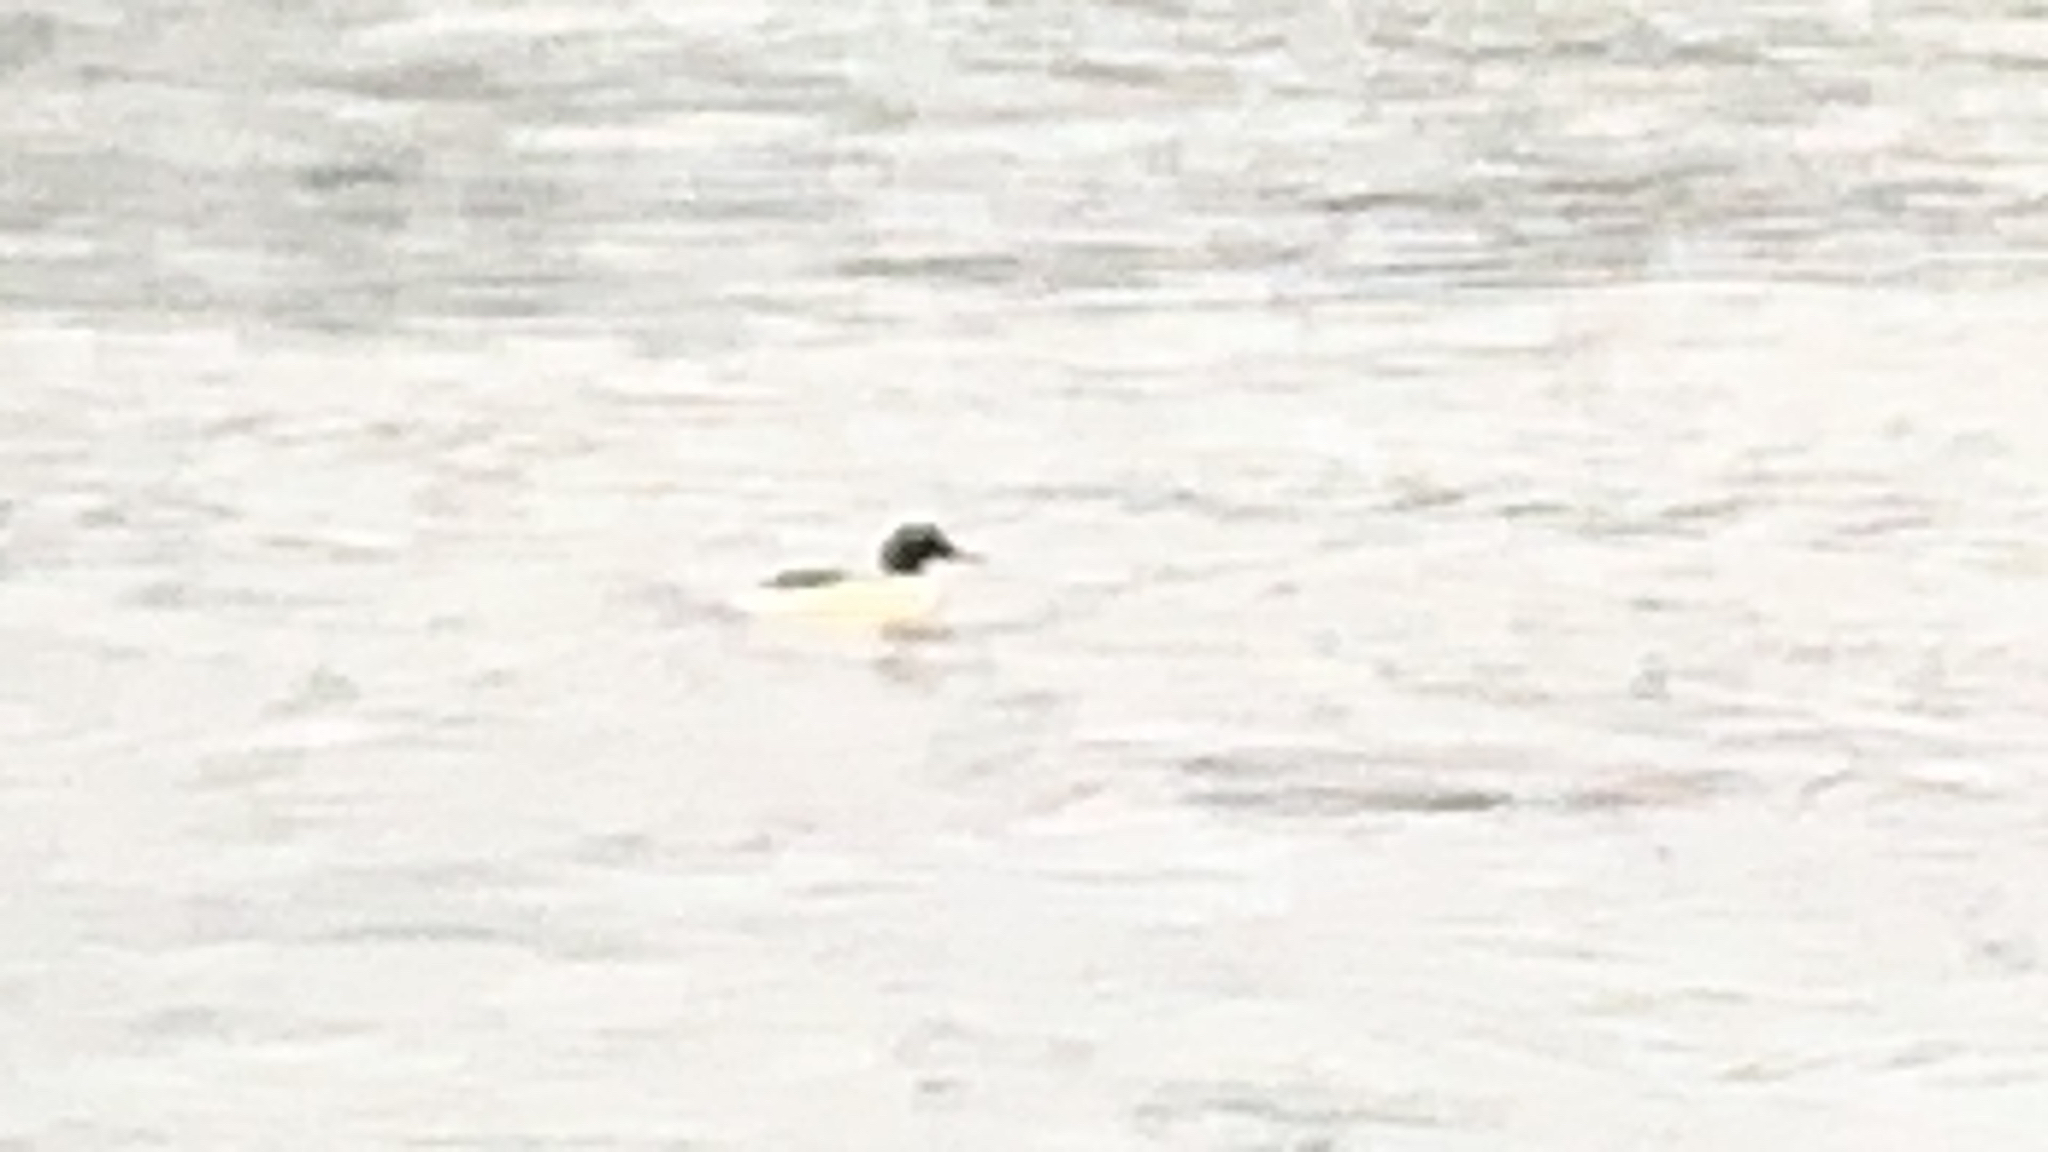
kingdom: Animalia
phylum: Chordata
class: Aves
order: Anseriformes
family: Anatidae
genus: Mergus
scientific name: Mergus merganser
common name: Common merganser
